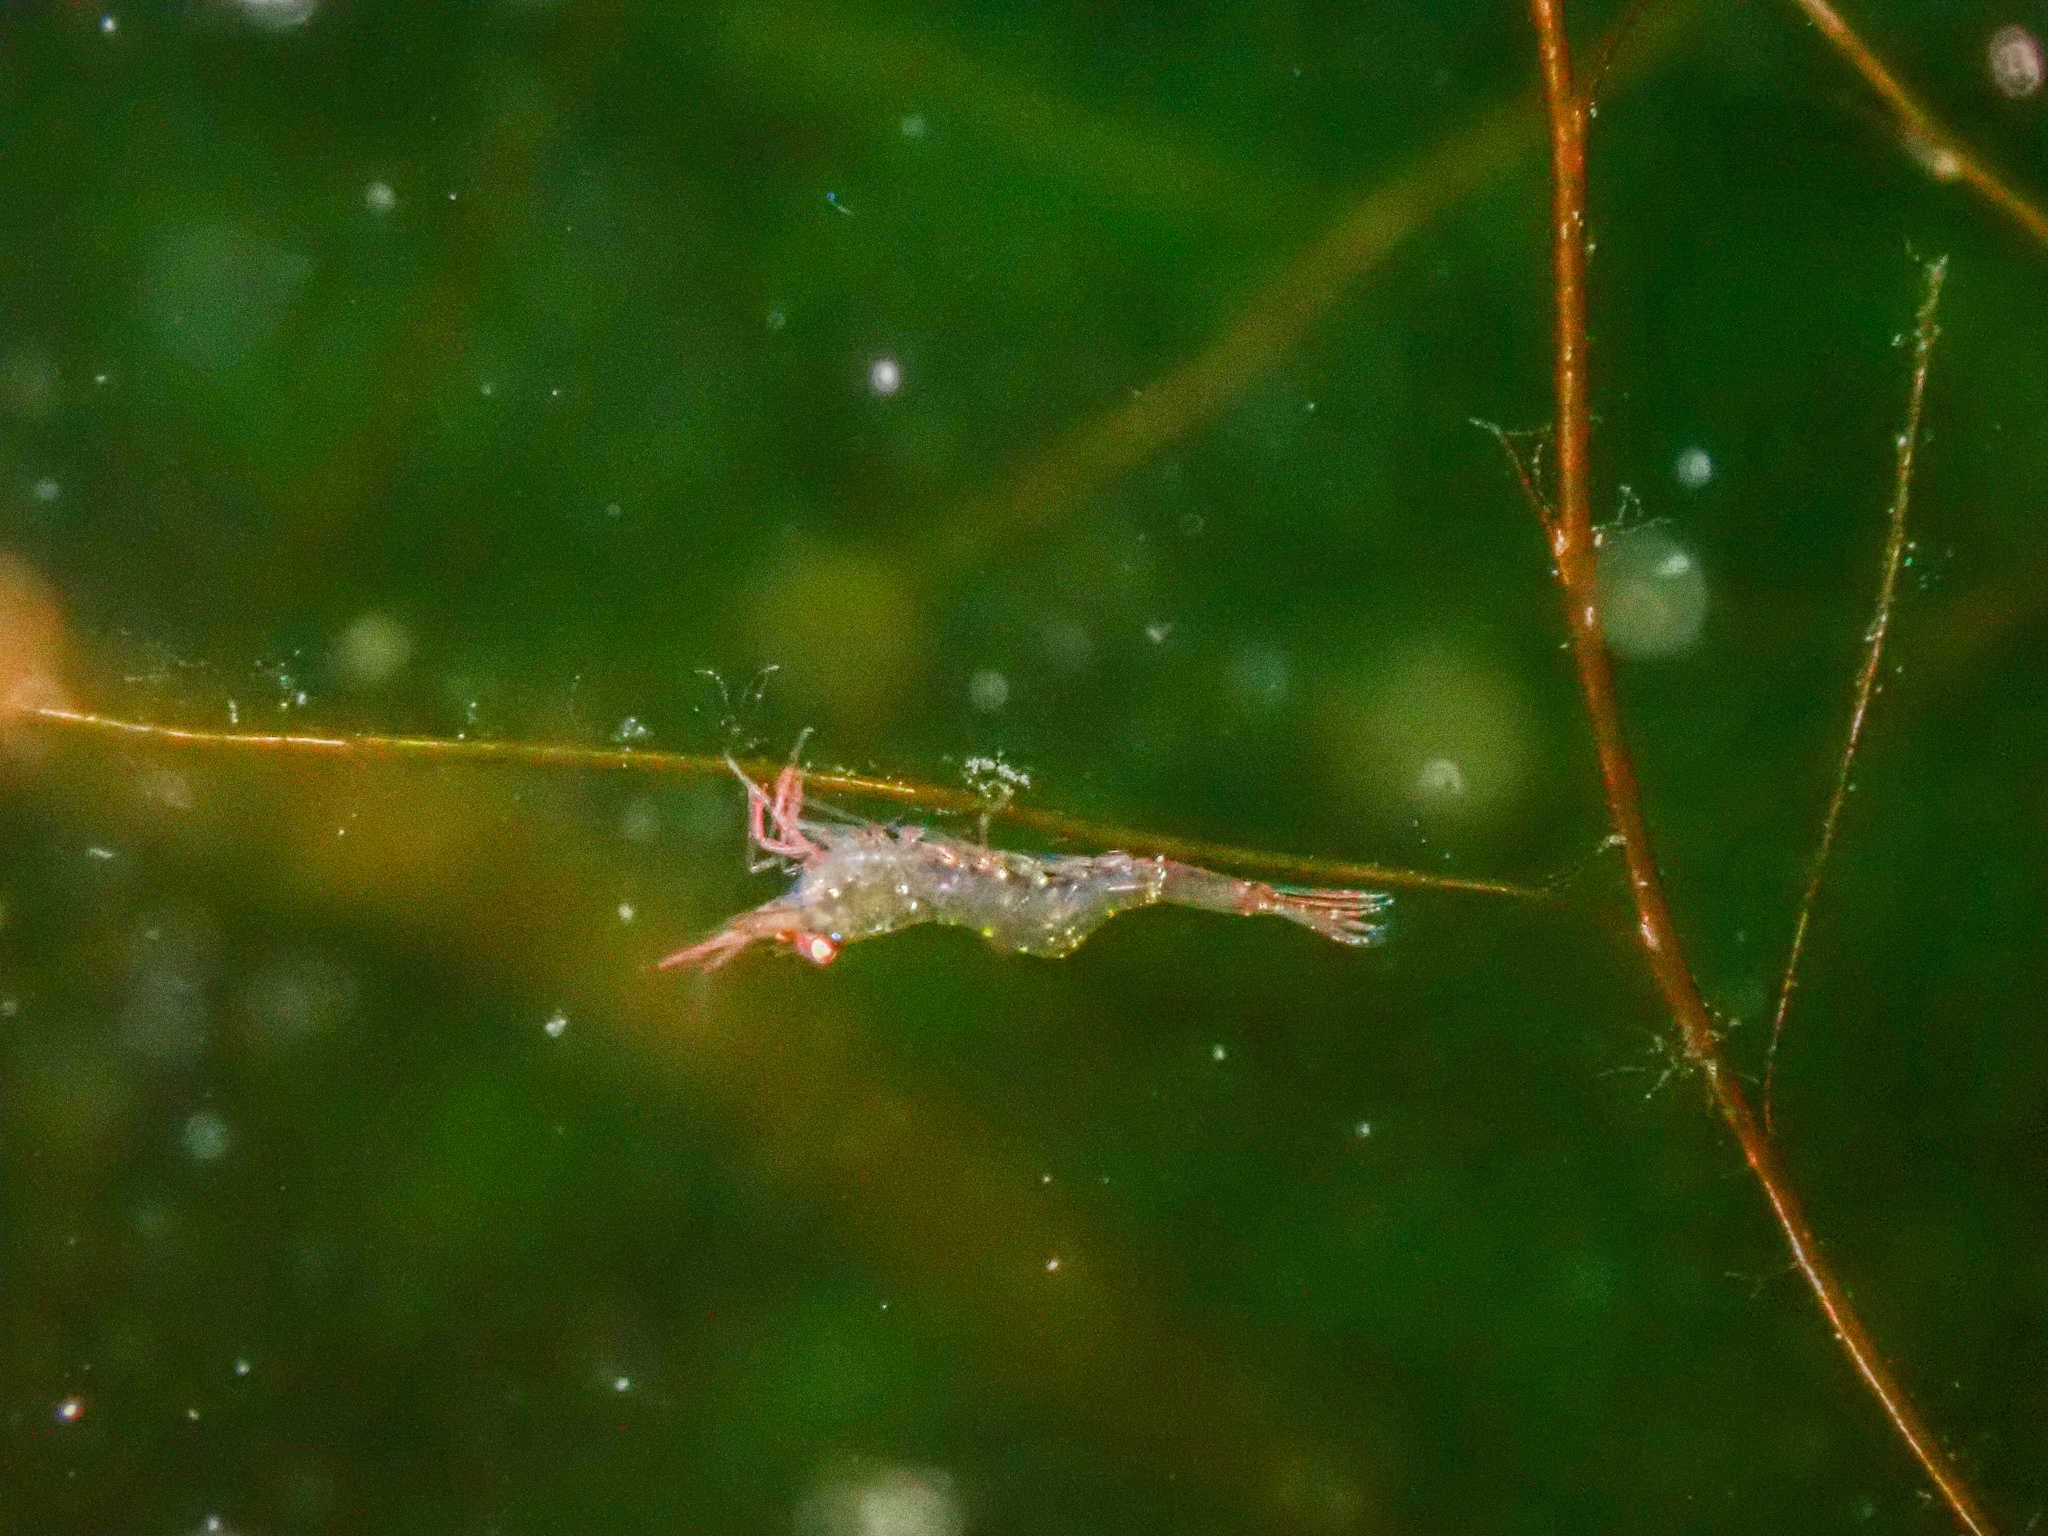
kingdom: Animalia
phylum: Arthropoda
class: Malacostraca
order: Decapoda
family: Hippolytidae
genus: Hippolyte
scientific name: Hippolyte varians
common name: Chamaeleon prawn
